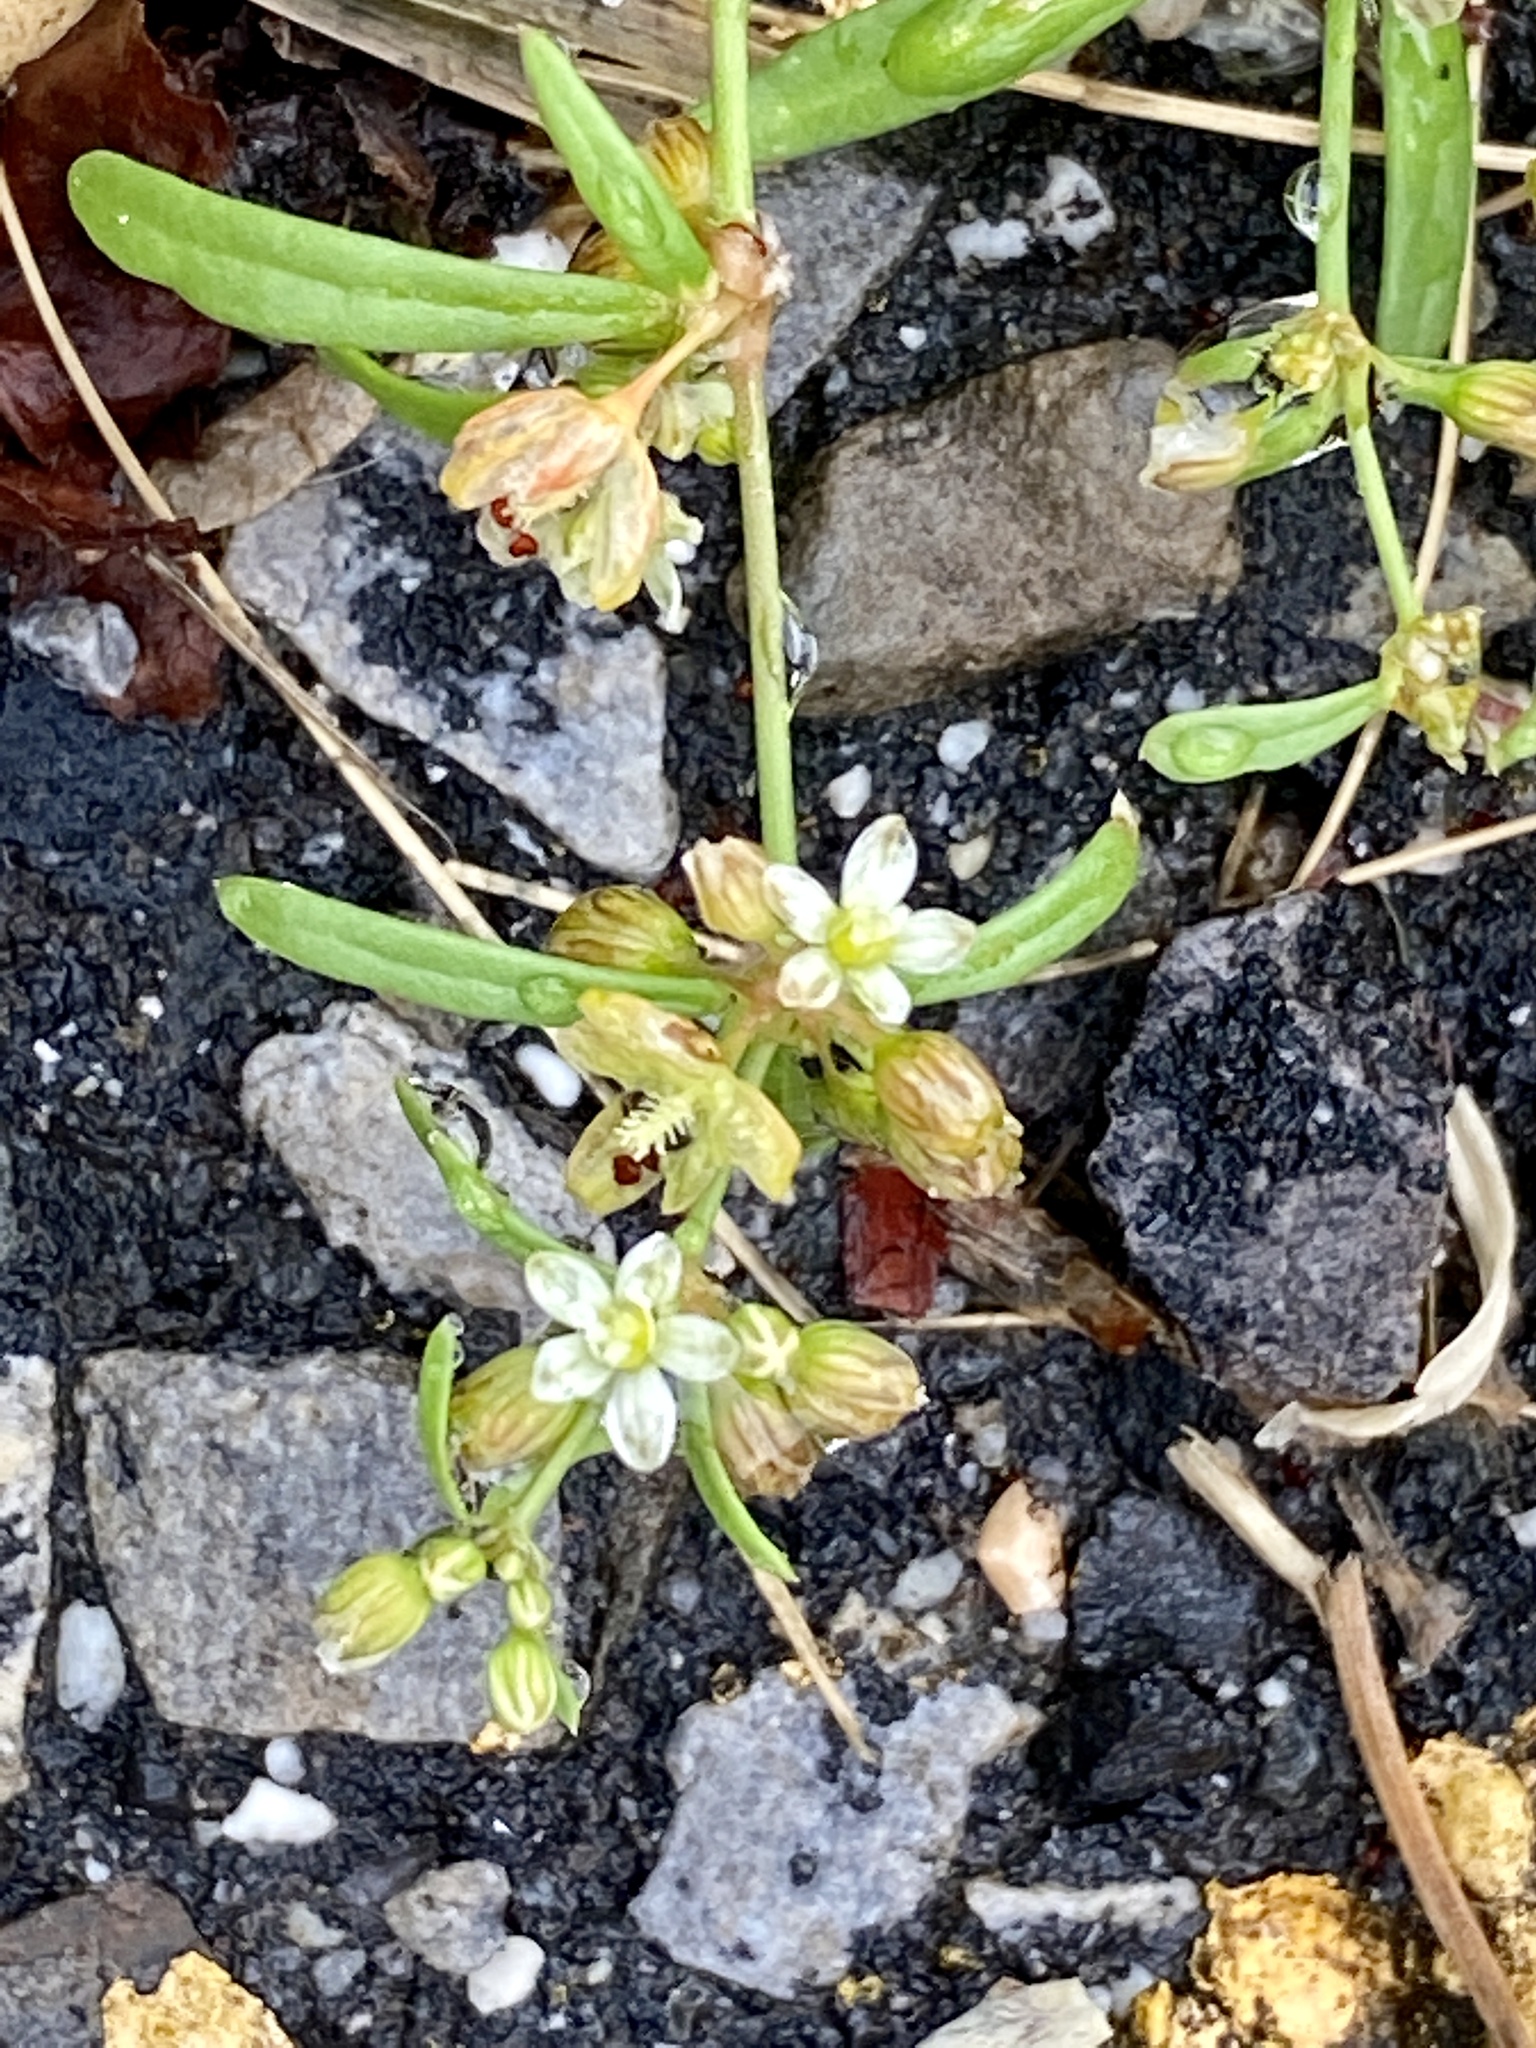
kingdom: Plantae
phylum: Tracheophyta
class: Magnoliopsida
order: Caryophyllales
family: Molluginaceae
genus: Mollugo
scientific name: Mollugo verticillata
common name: Green carpetweed
